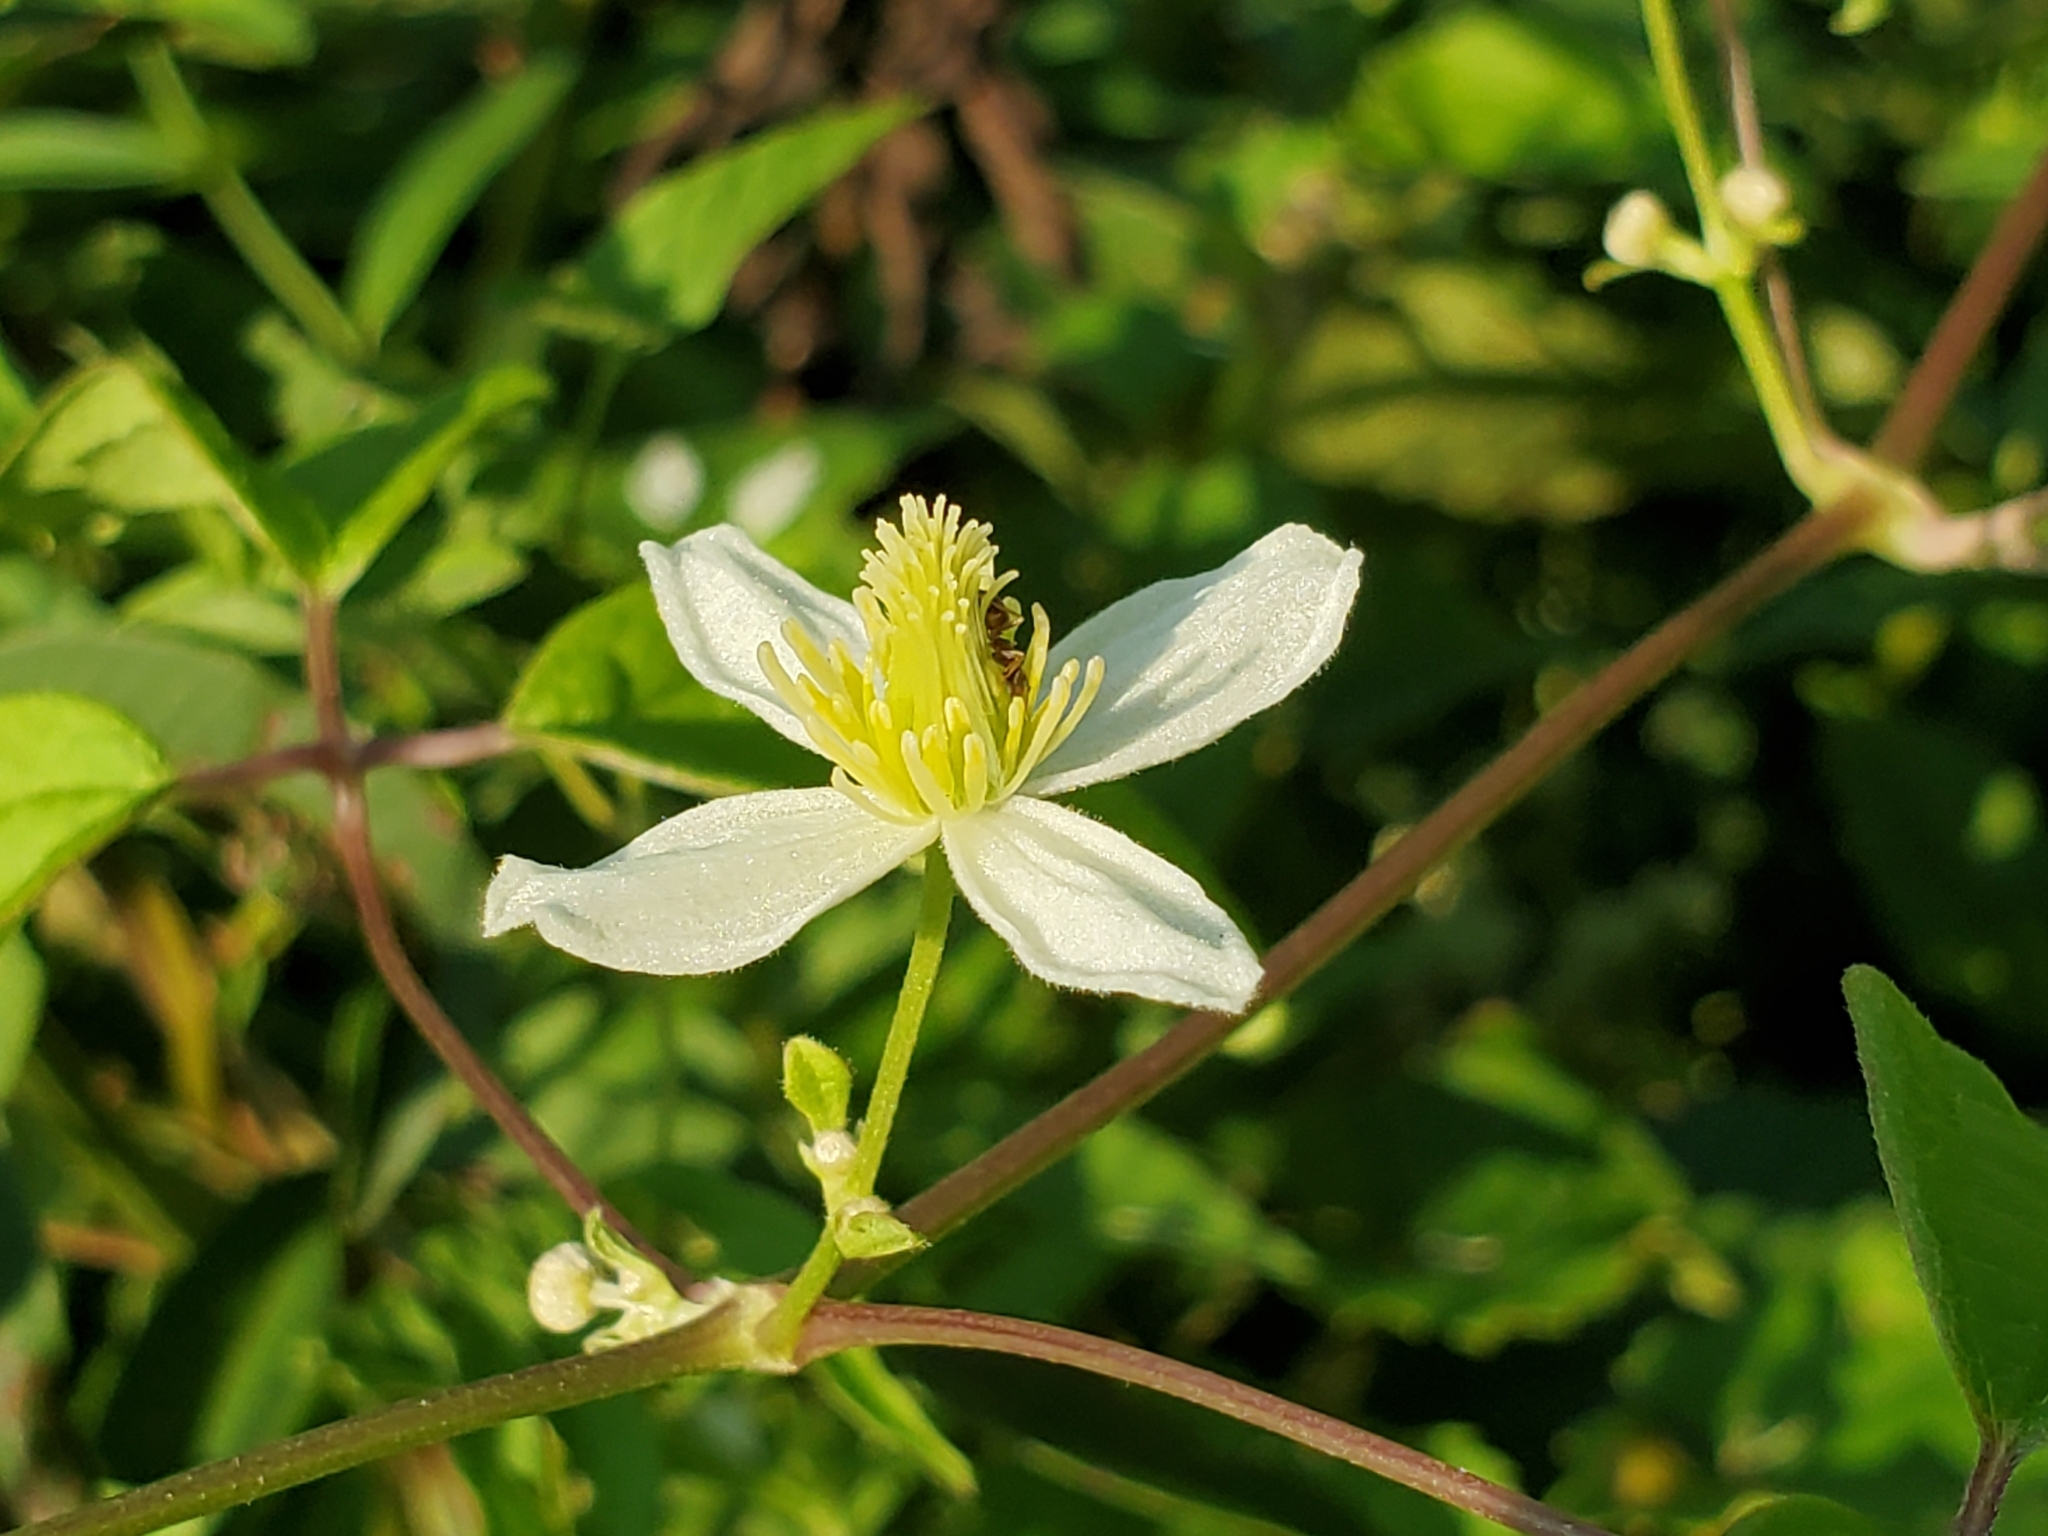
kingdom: Plantae
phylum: Tracheophyta
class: Magnoliopsida
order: Ranunculales
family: Ranunculaceae
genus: Clematis
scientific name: Clematis virginiana
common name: Virgin's-bower
